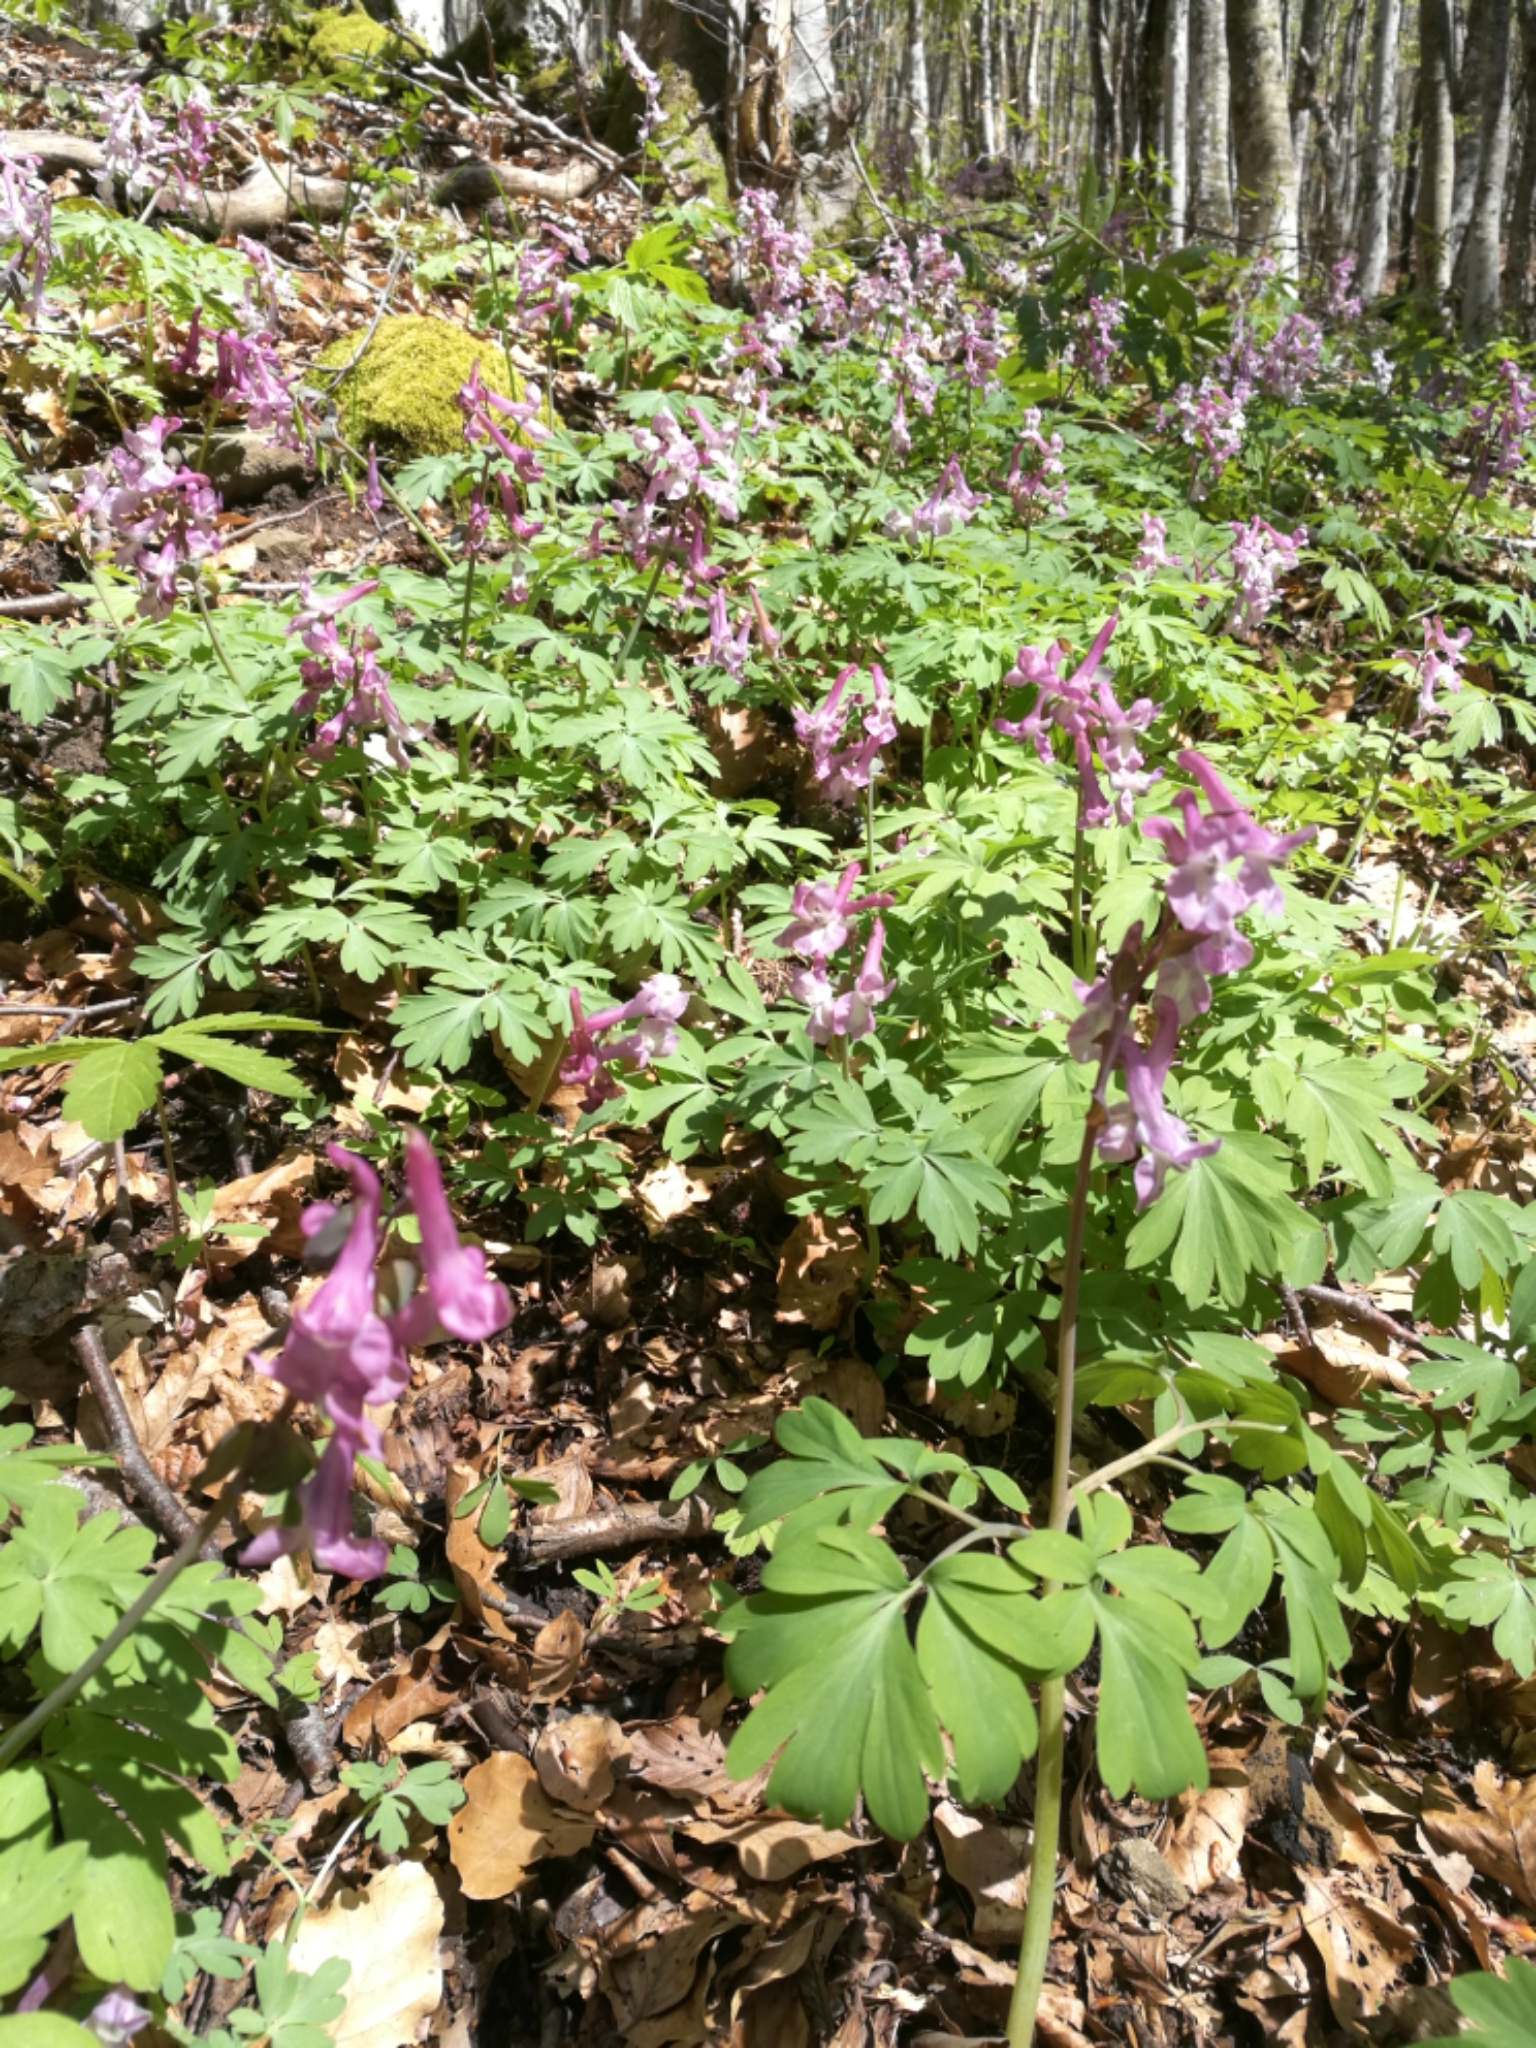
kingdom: Plantae
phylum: Tracheophyta
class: Magnoliopsida
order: Ranunculales
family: Papaveraceae
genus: Corydalis
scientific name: Corydalis cava
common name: Hollowroot
